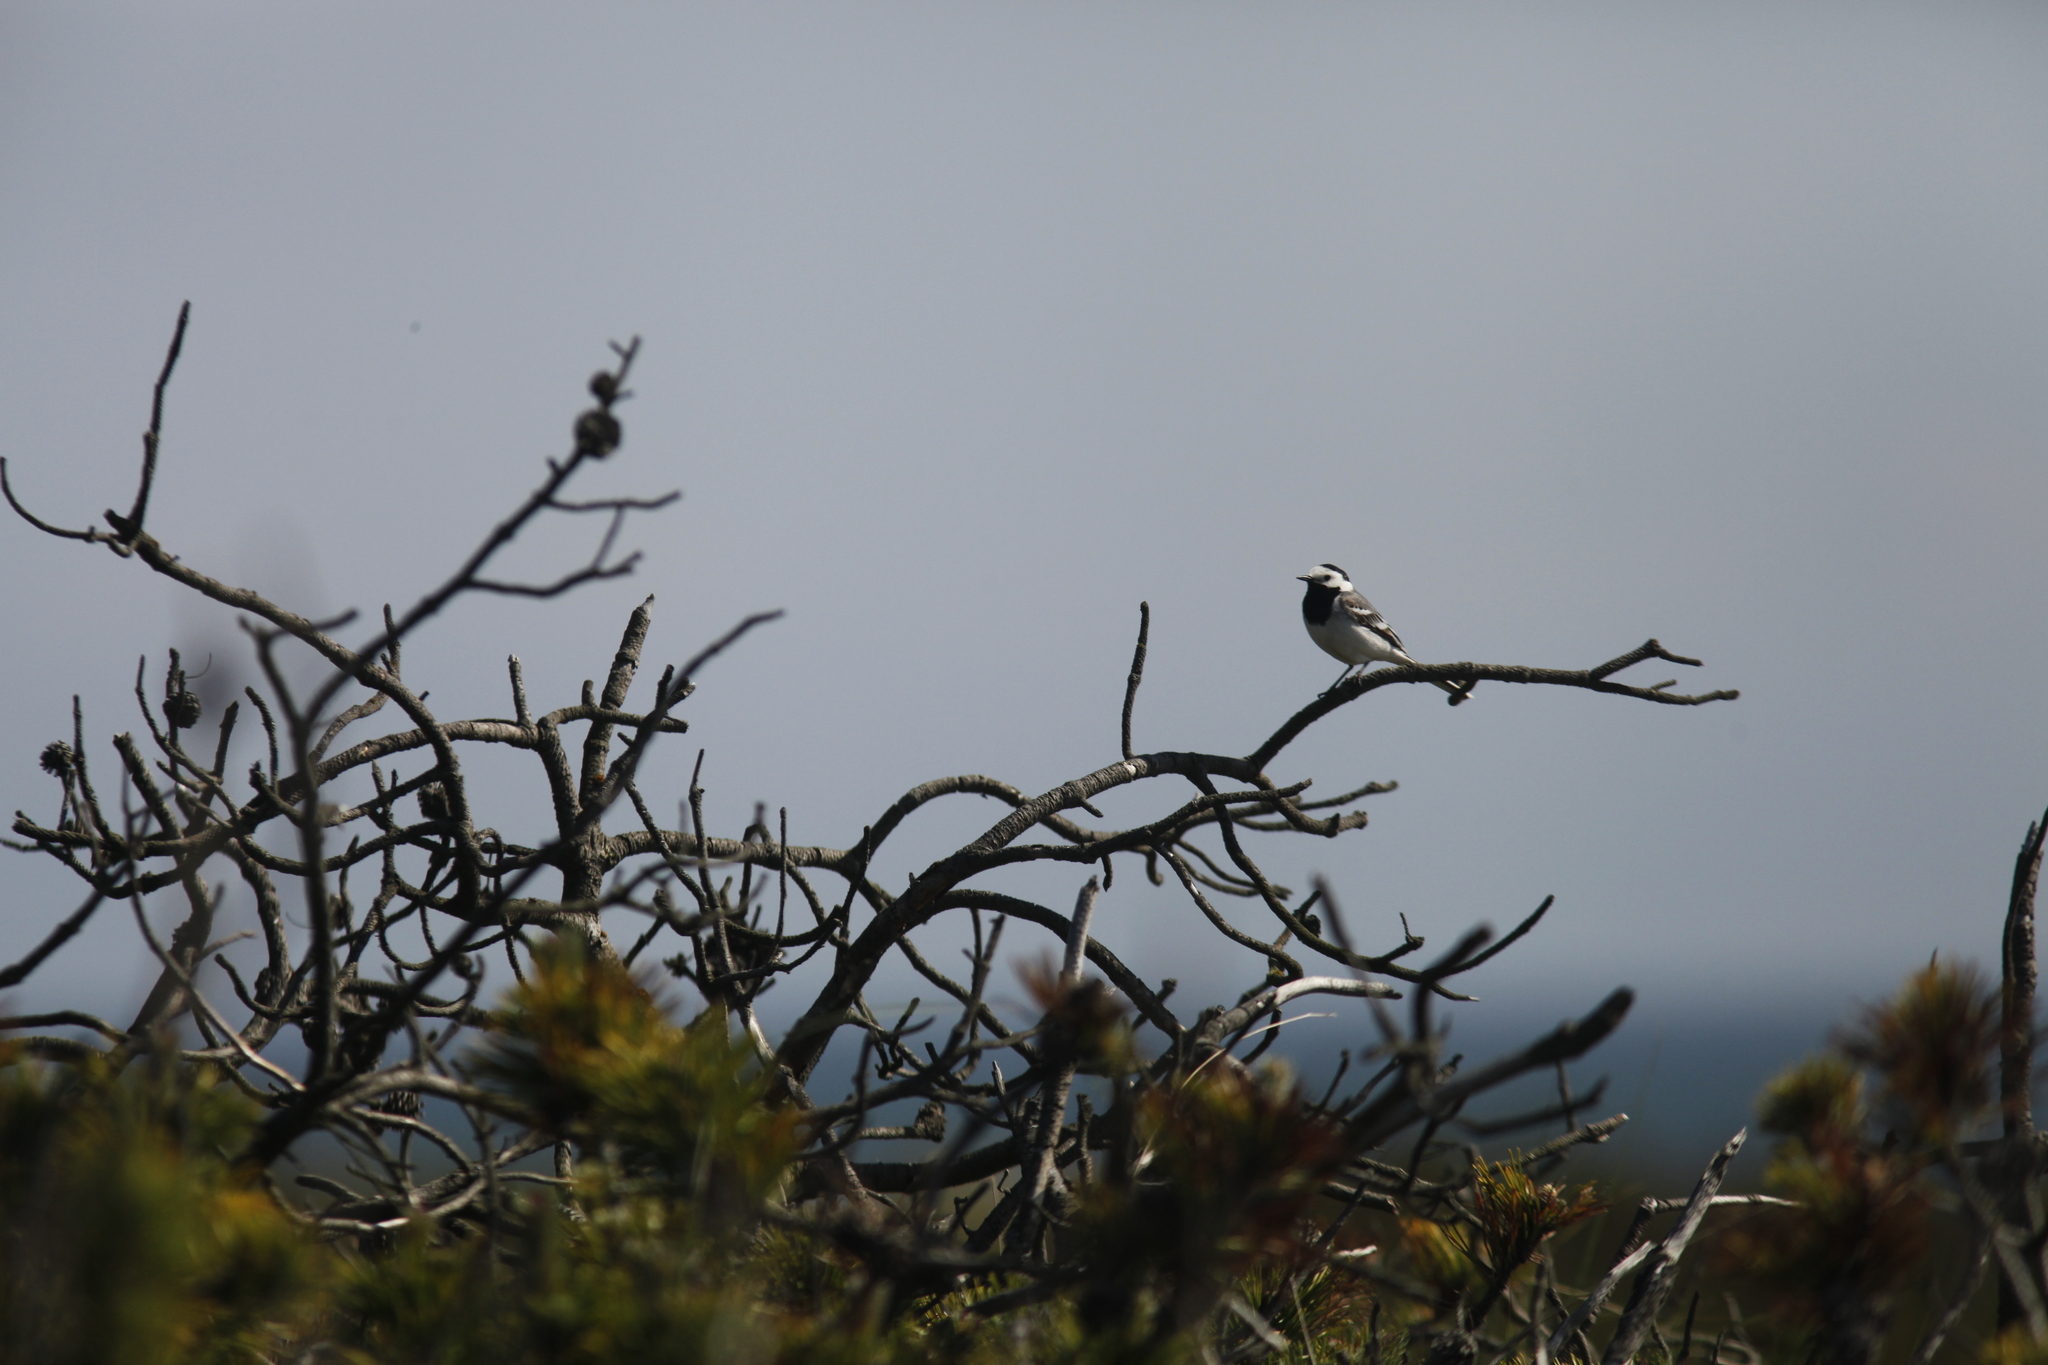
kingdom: Animalia
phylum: Chordata
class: Aves
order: Passeriformes
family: Motacillidae
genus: Motacilla
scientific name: Motacilla alba
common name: White wagtail
